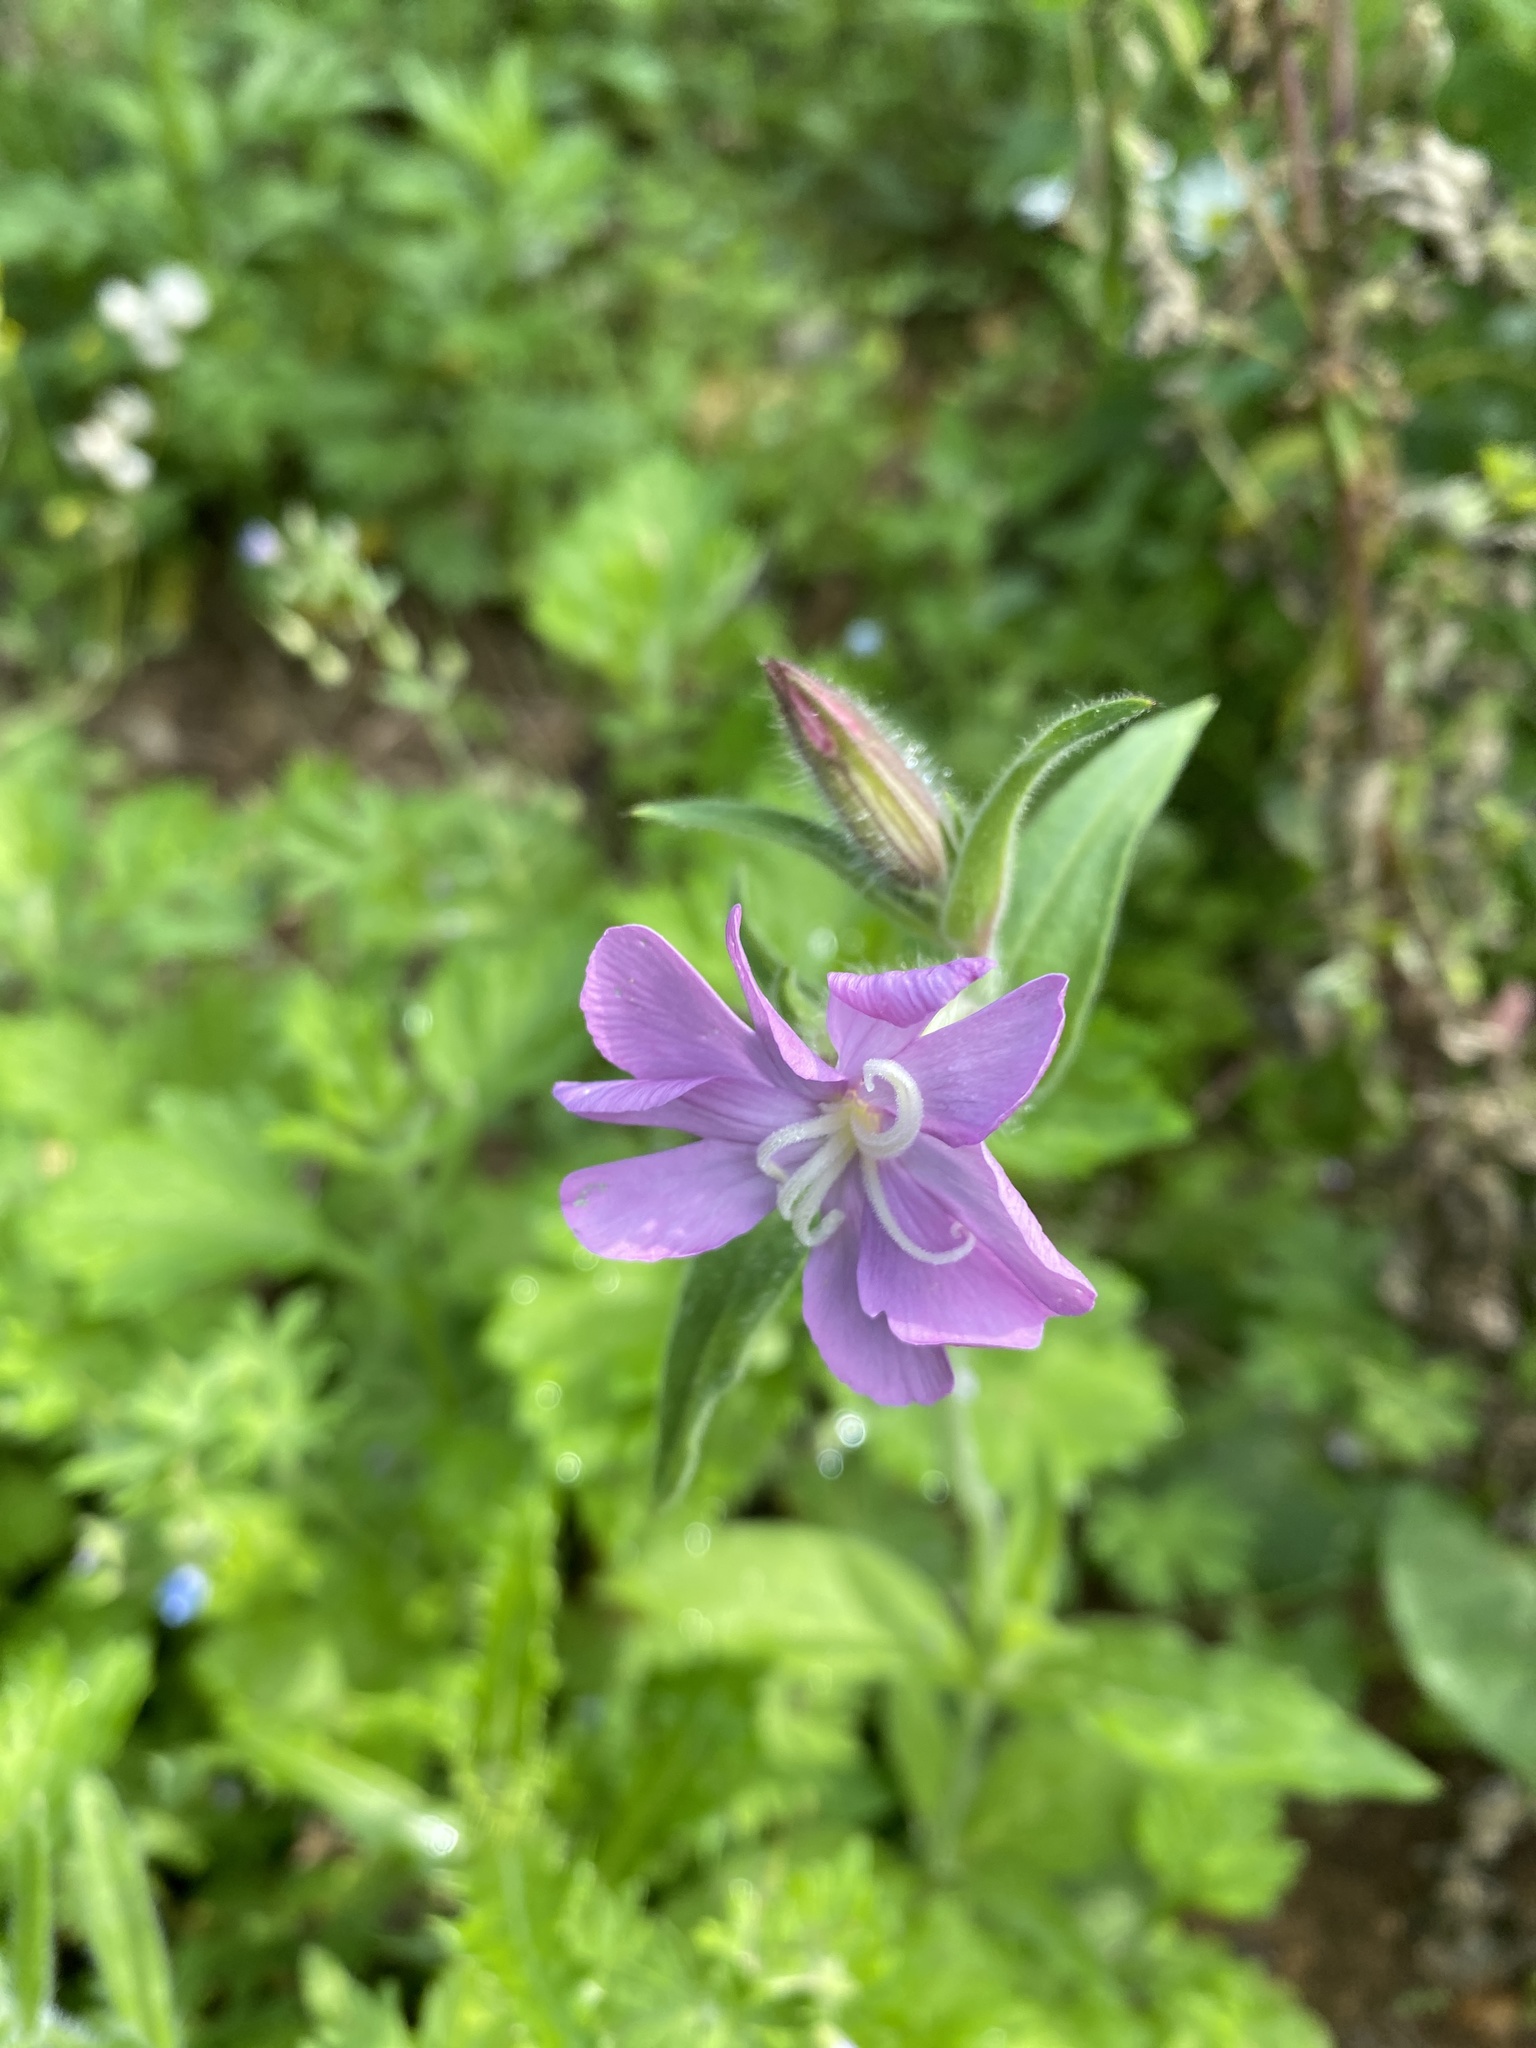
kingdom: Plantae
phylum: Tracheophyta
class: Magnoliopsida
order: Caryophyllales
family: Caryophyllaceae
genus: Silene
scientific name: Silene dioica
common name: Red campion
